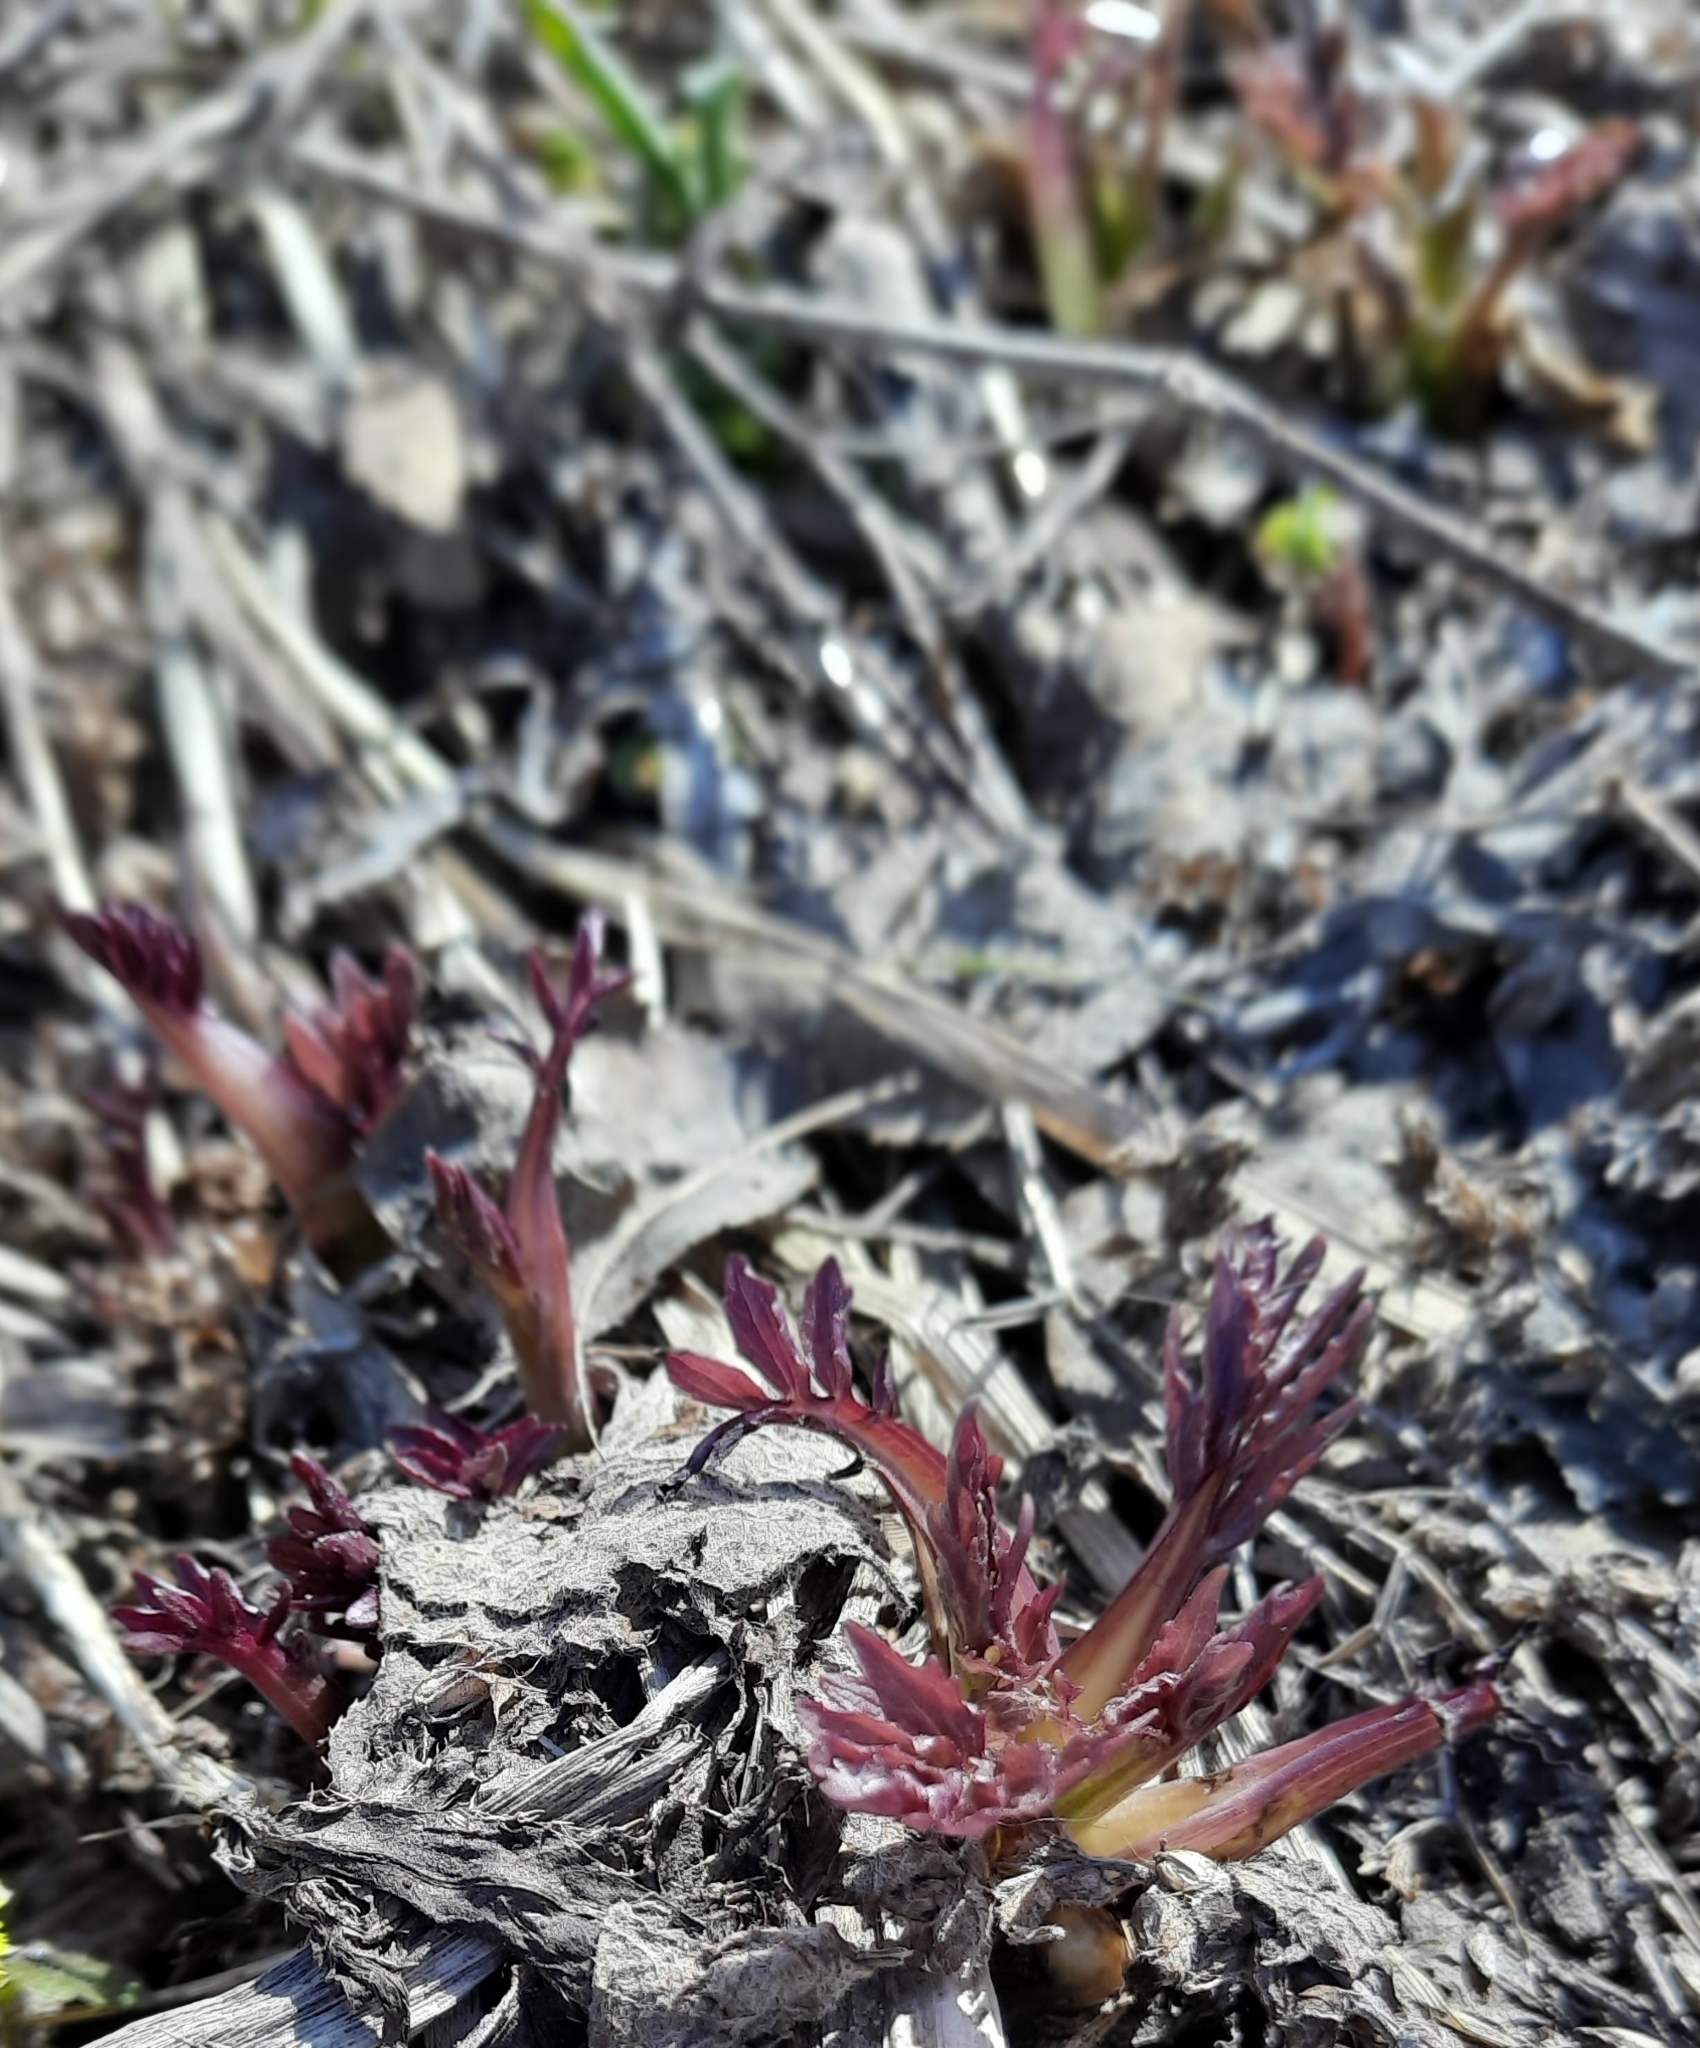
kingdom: Plantae
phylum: Tracheophyta
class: Magnoliopsida
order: Dipsacales
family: Caprifoliaceae
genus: Valeriana
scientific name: Valeriana wolgensis
